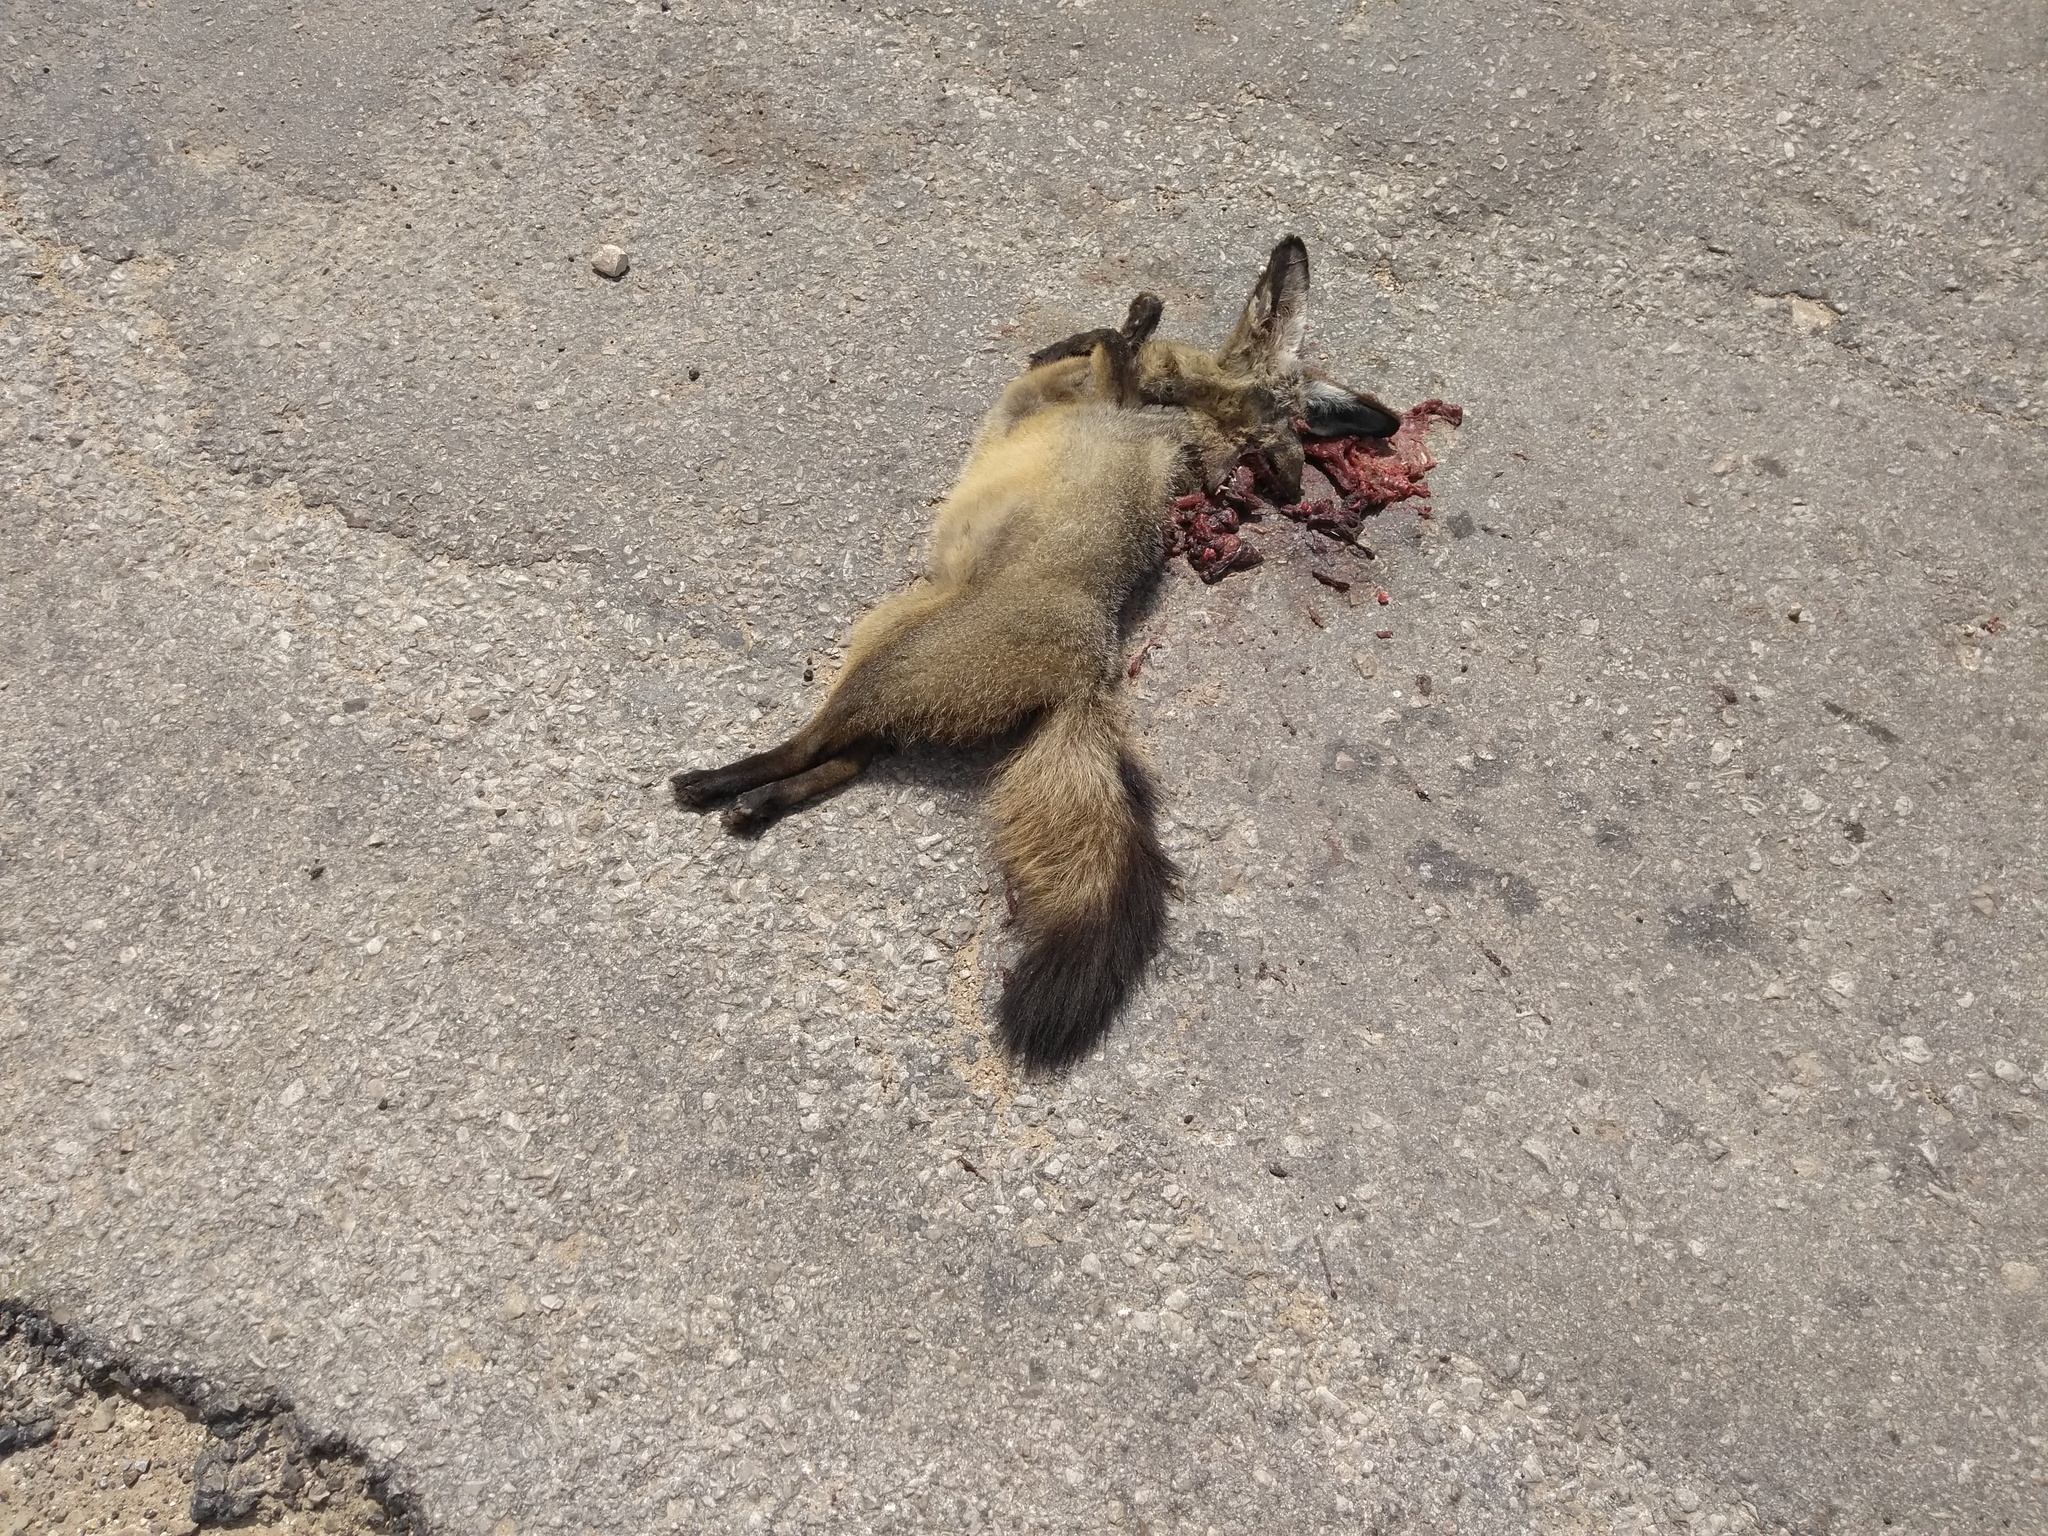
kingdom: Animalia
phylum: Chordata
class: Mammalia
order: Carnivora
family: Canidae
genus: Otocyon
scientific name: Otocyon megalotis
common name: Bat-eared fox
